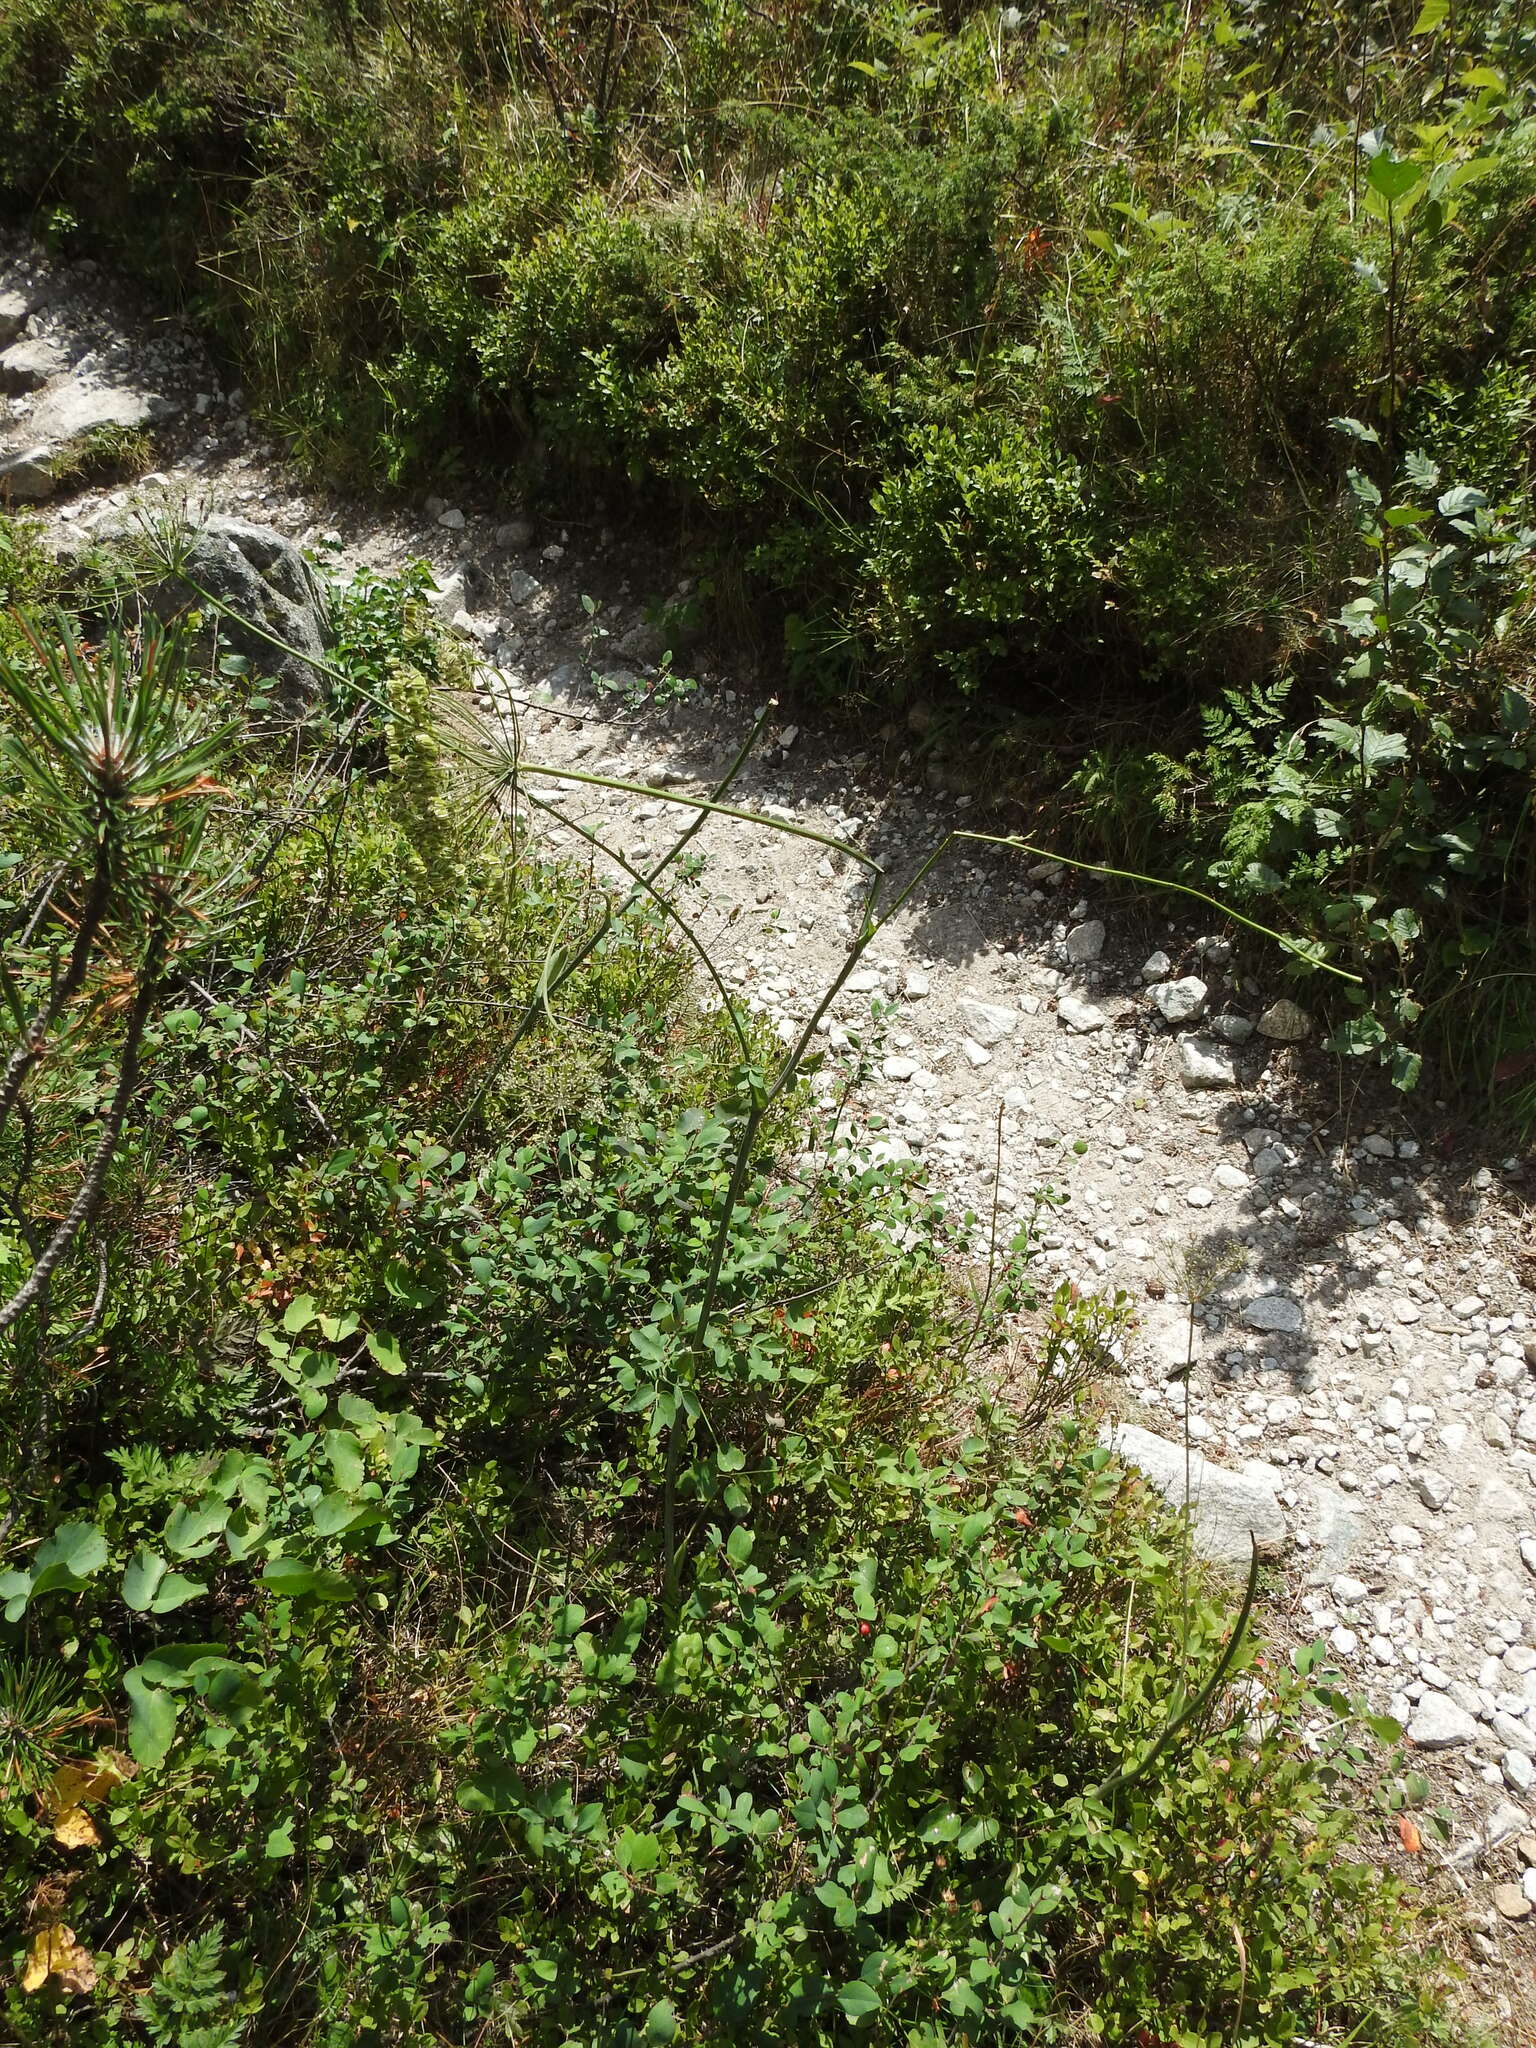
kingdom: Plantae
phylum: Tracheophyta
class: Magnoliopsida
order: Apiales
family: Apiaceae
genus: Laserpitium
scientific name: Laserpitium latifolium
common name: Broadleaf sermountain
